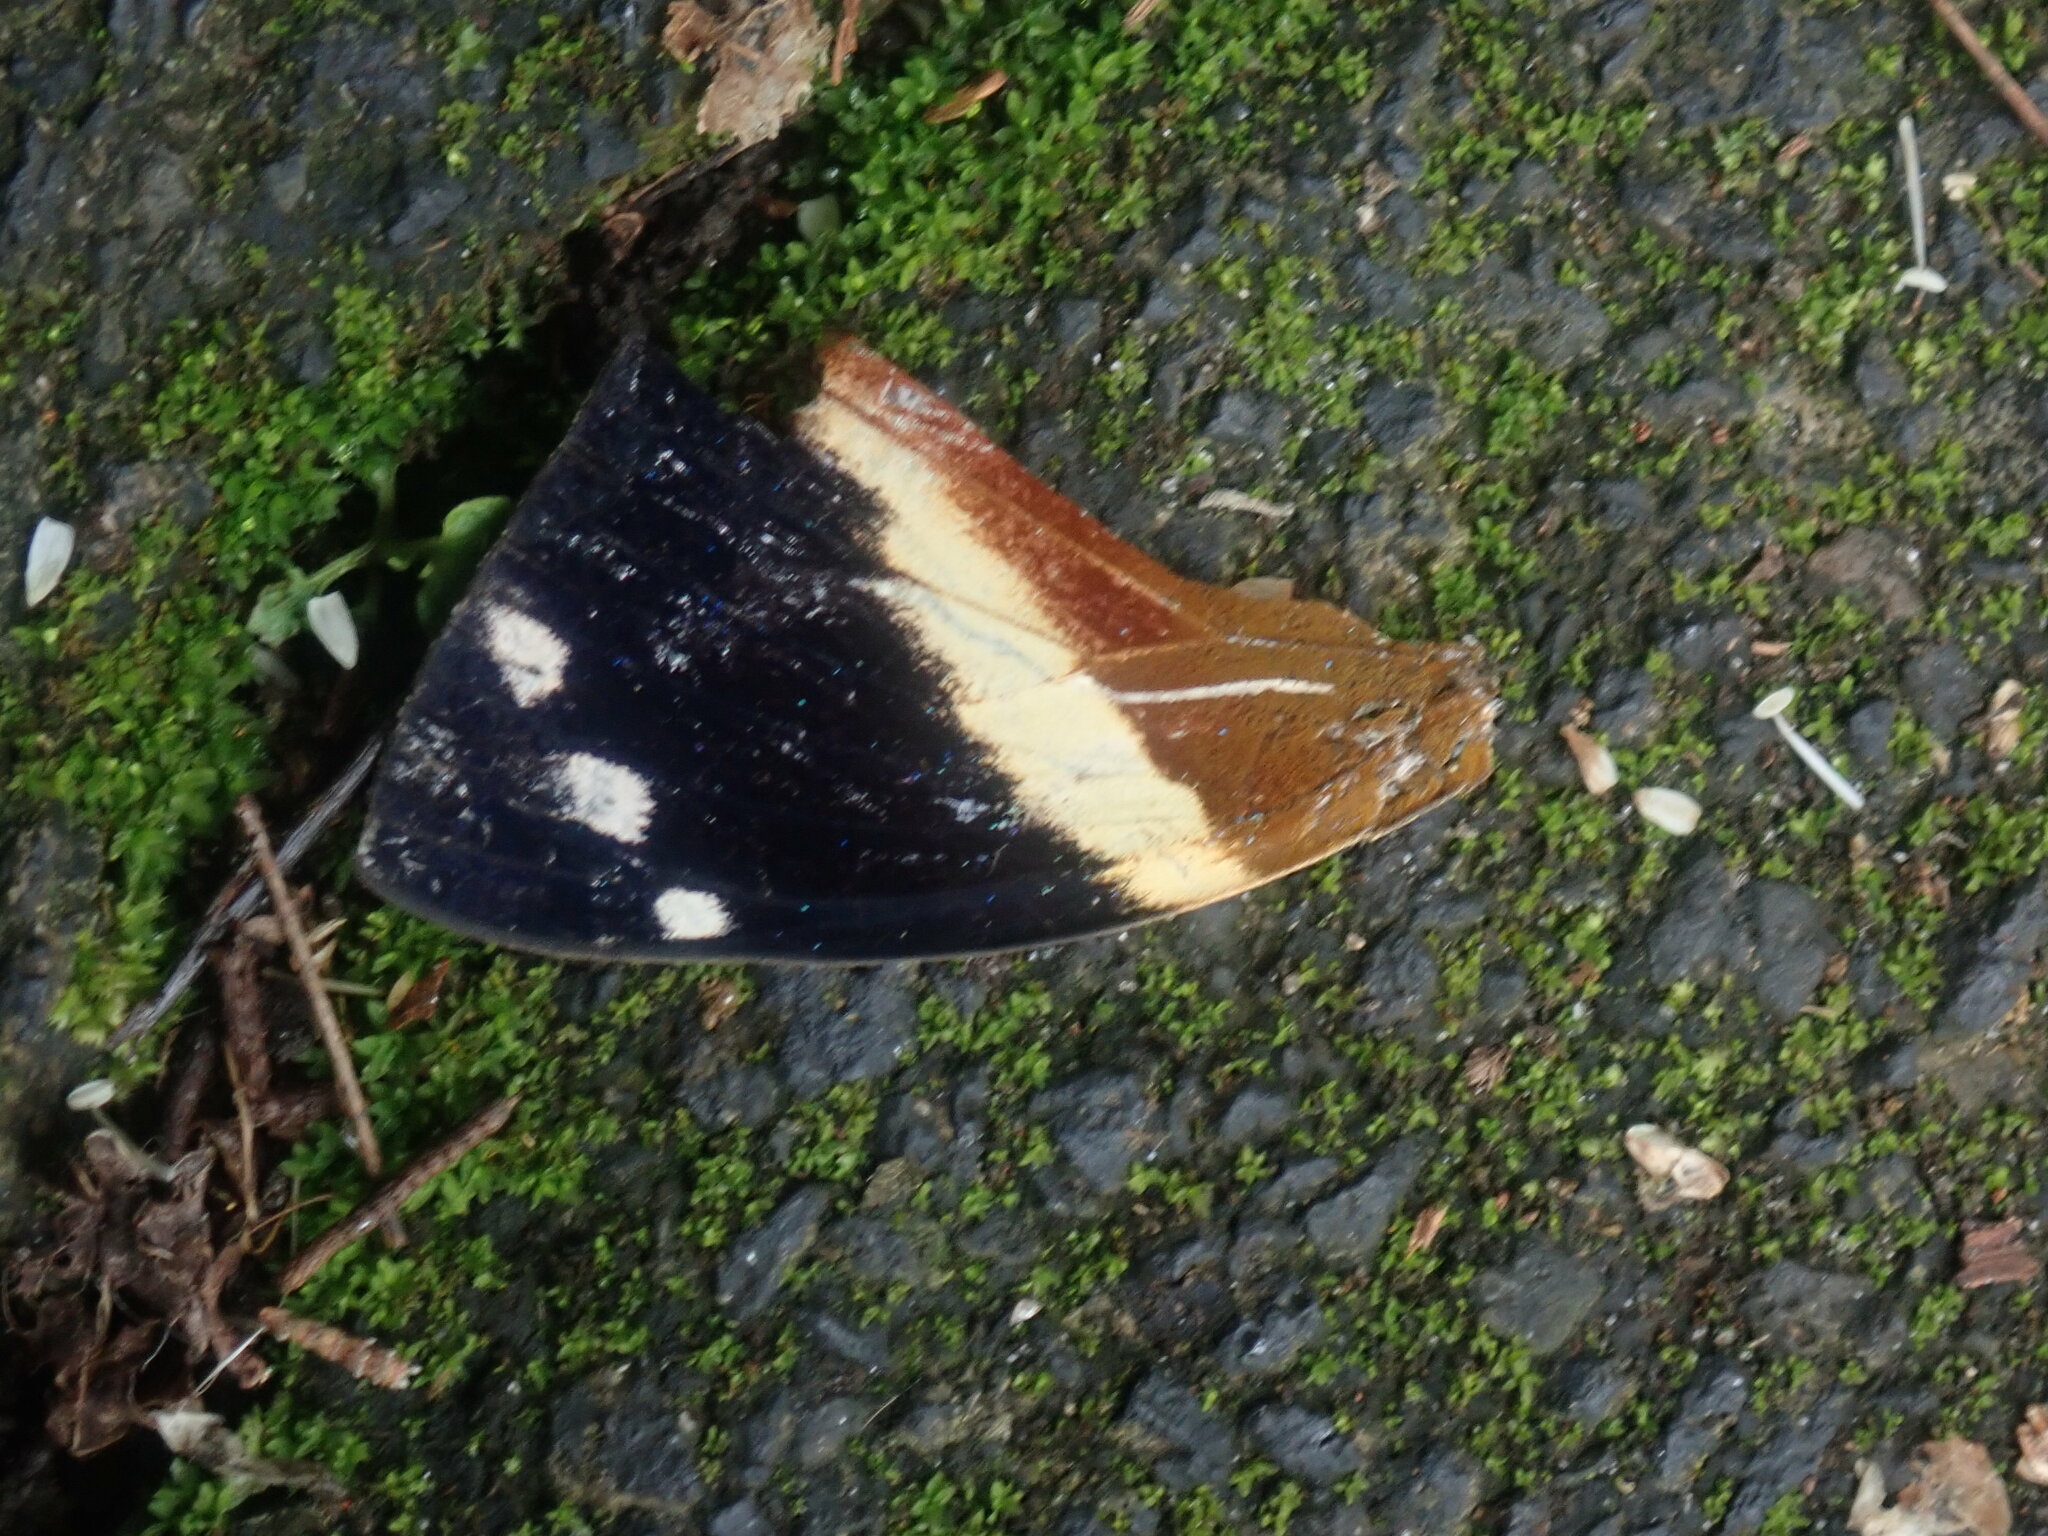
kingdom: Animalia
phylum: Arthropoda
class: Insecta
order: Lepidoptera
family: Nymphalidae
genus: Smyrna
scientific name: Smyrna blomfildia
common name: Blomfild's beauty
